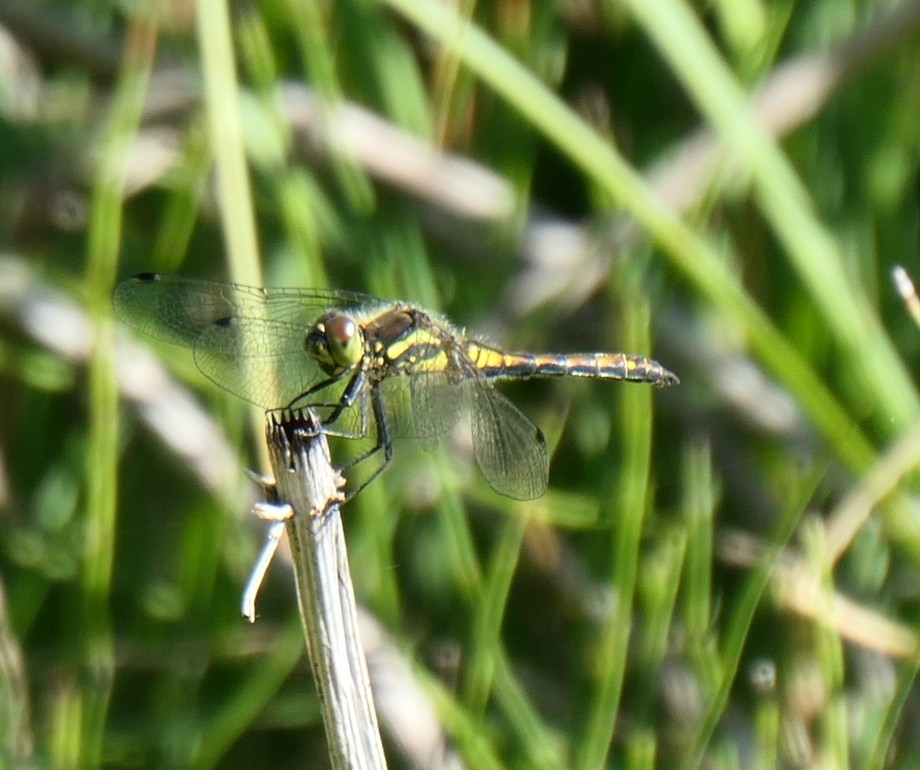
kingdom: Animalia
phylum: Arthropoda
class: Insecta
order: Odonata
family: Libellulidae
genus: Sympetrum
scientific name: Sympetrum danae
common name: Black darter
